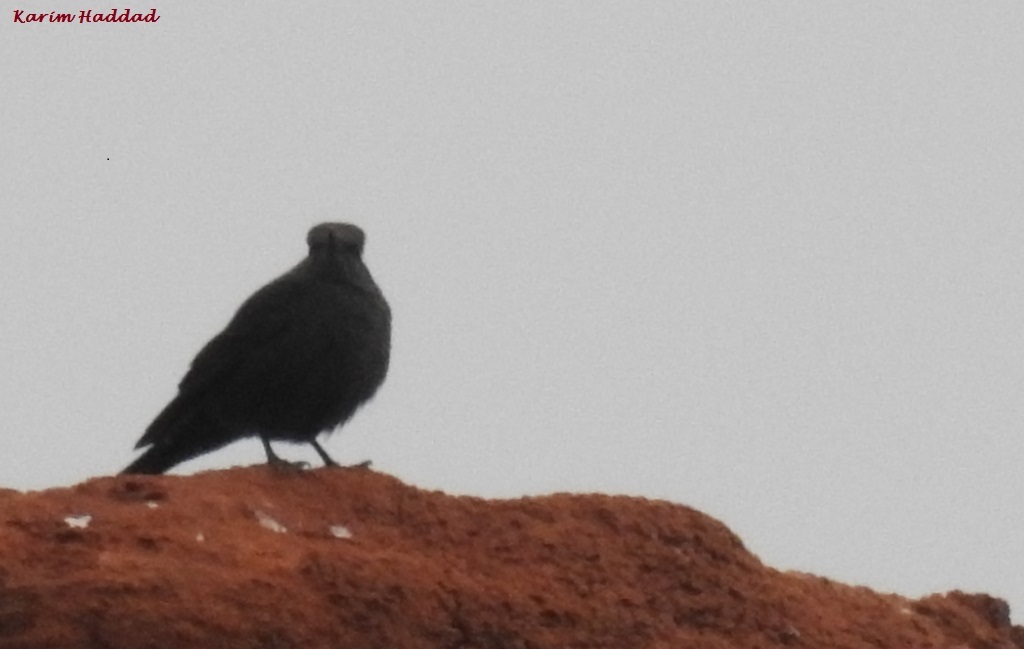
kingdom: Animalia
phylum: Chordata
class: Aves
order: Passeriformes
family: Muscicapidae
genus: Monticola
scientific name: Monticola solitarius
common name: Blue rock thrush
